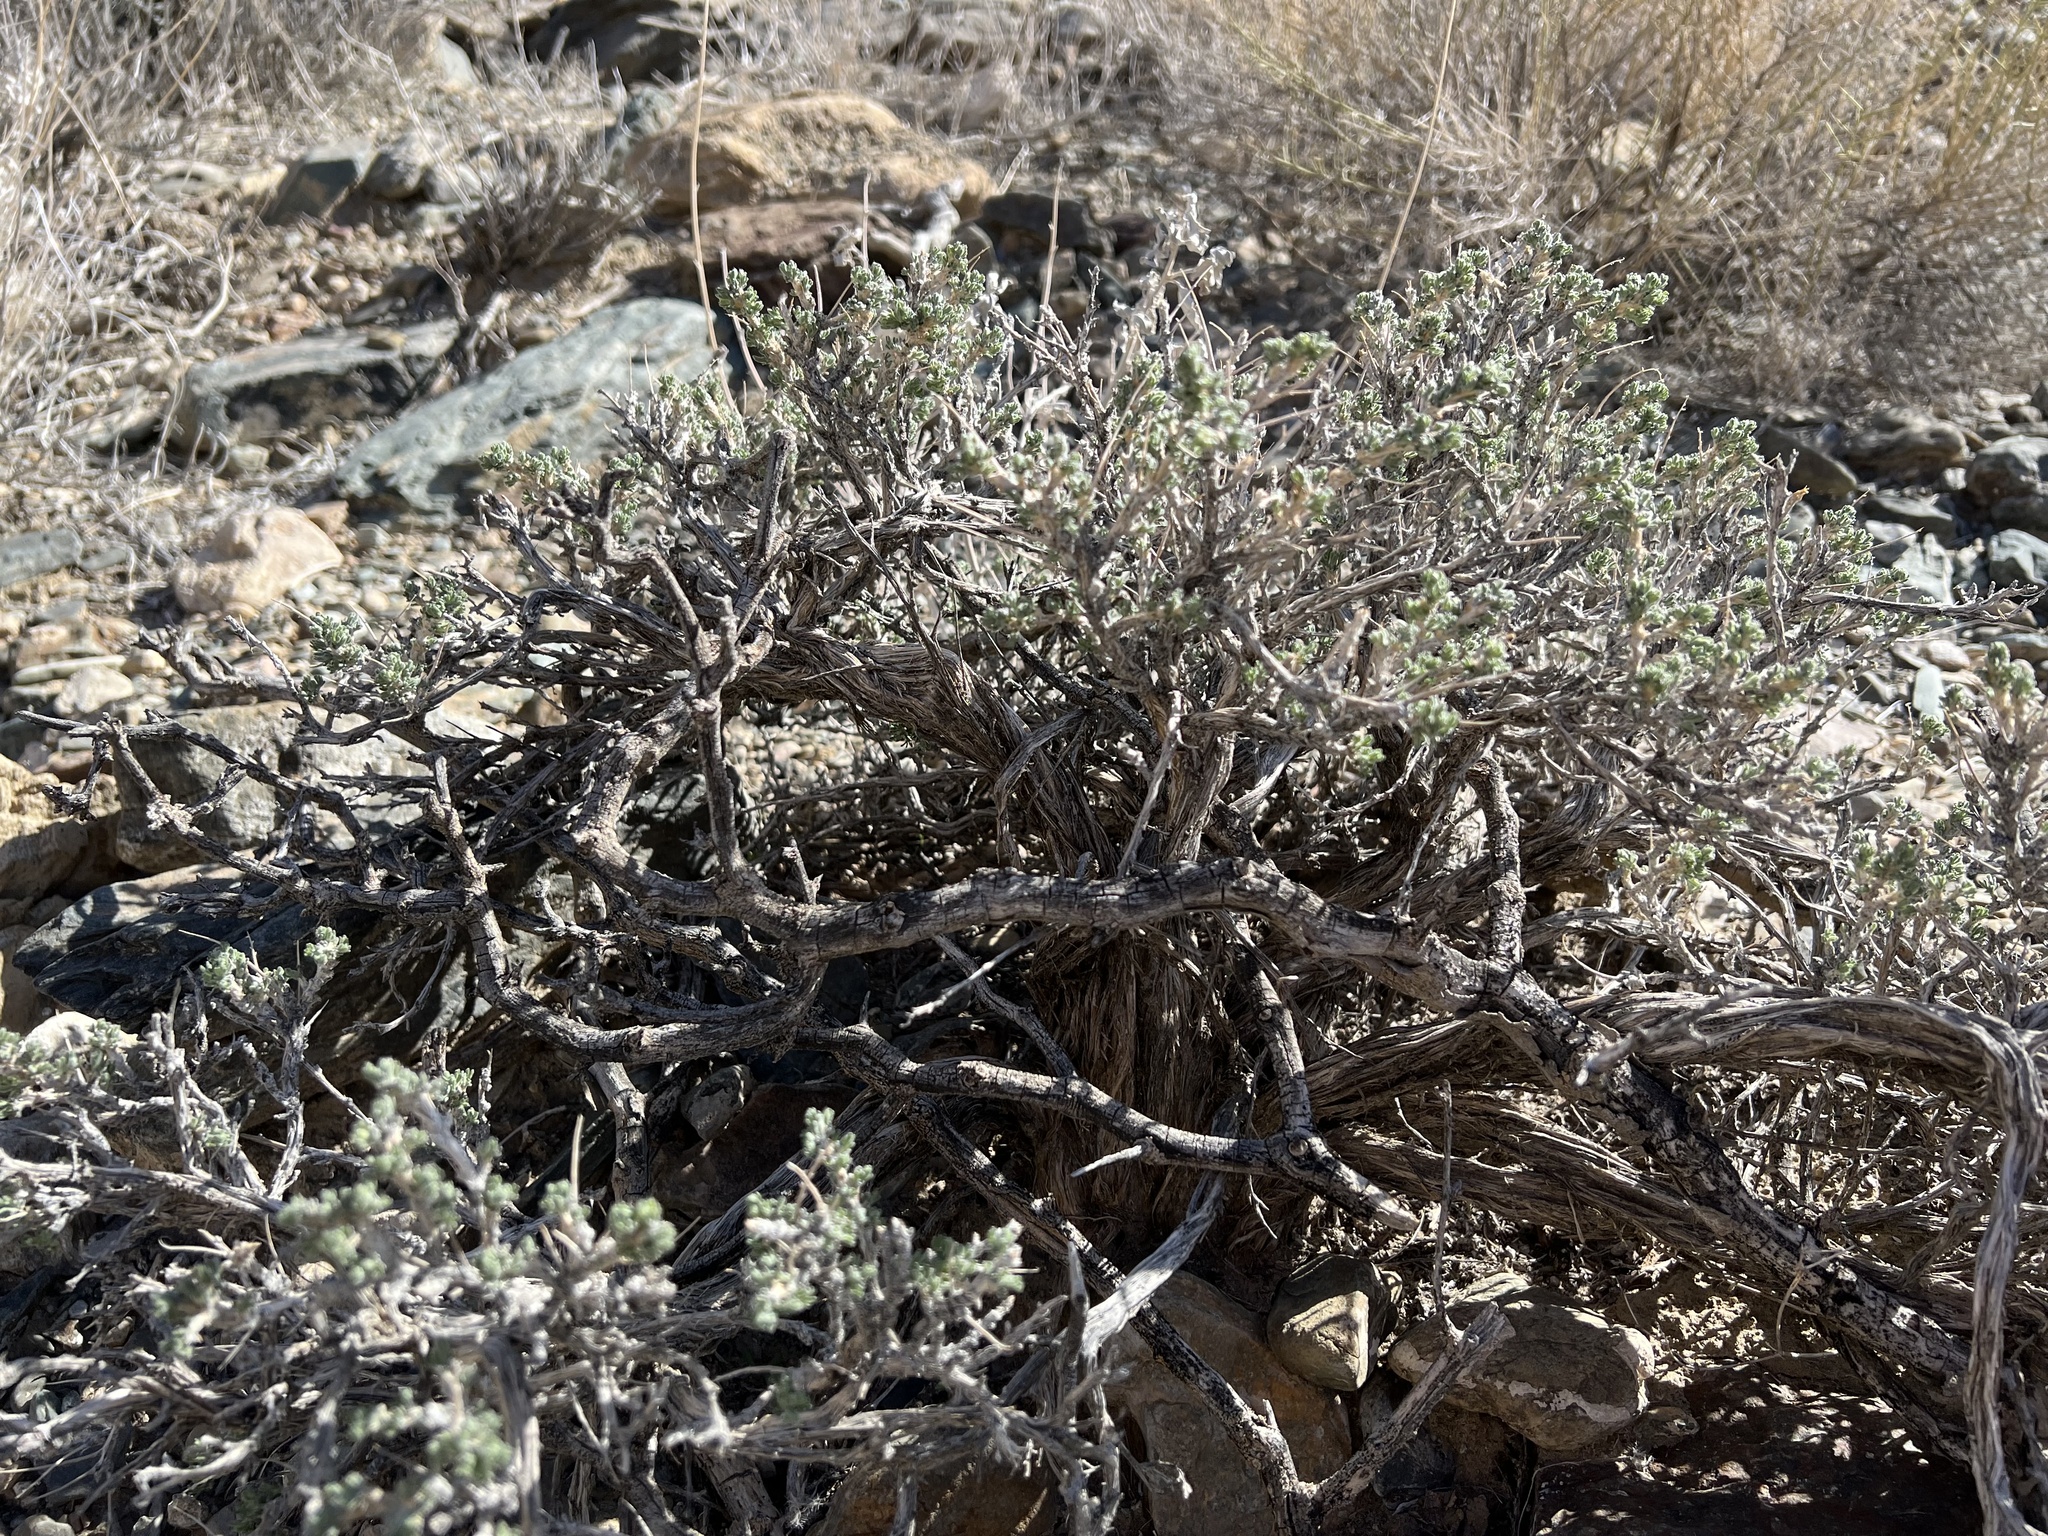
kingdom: Plantae
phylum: Tracheophyta
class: Magnoliopsida
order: Asterales
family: Asteraceae
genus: Artemisia
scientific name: Artemisia spinescens
